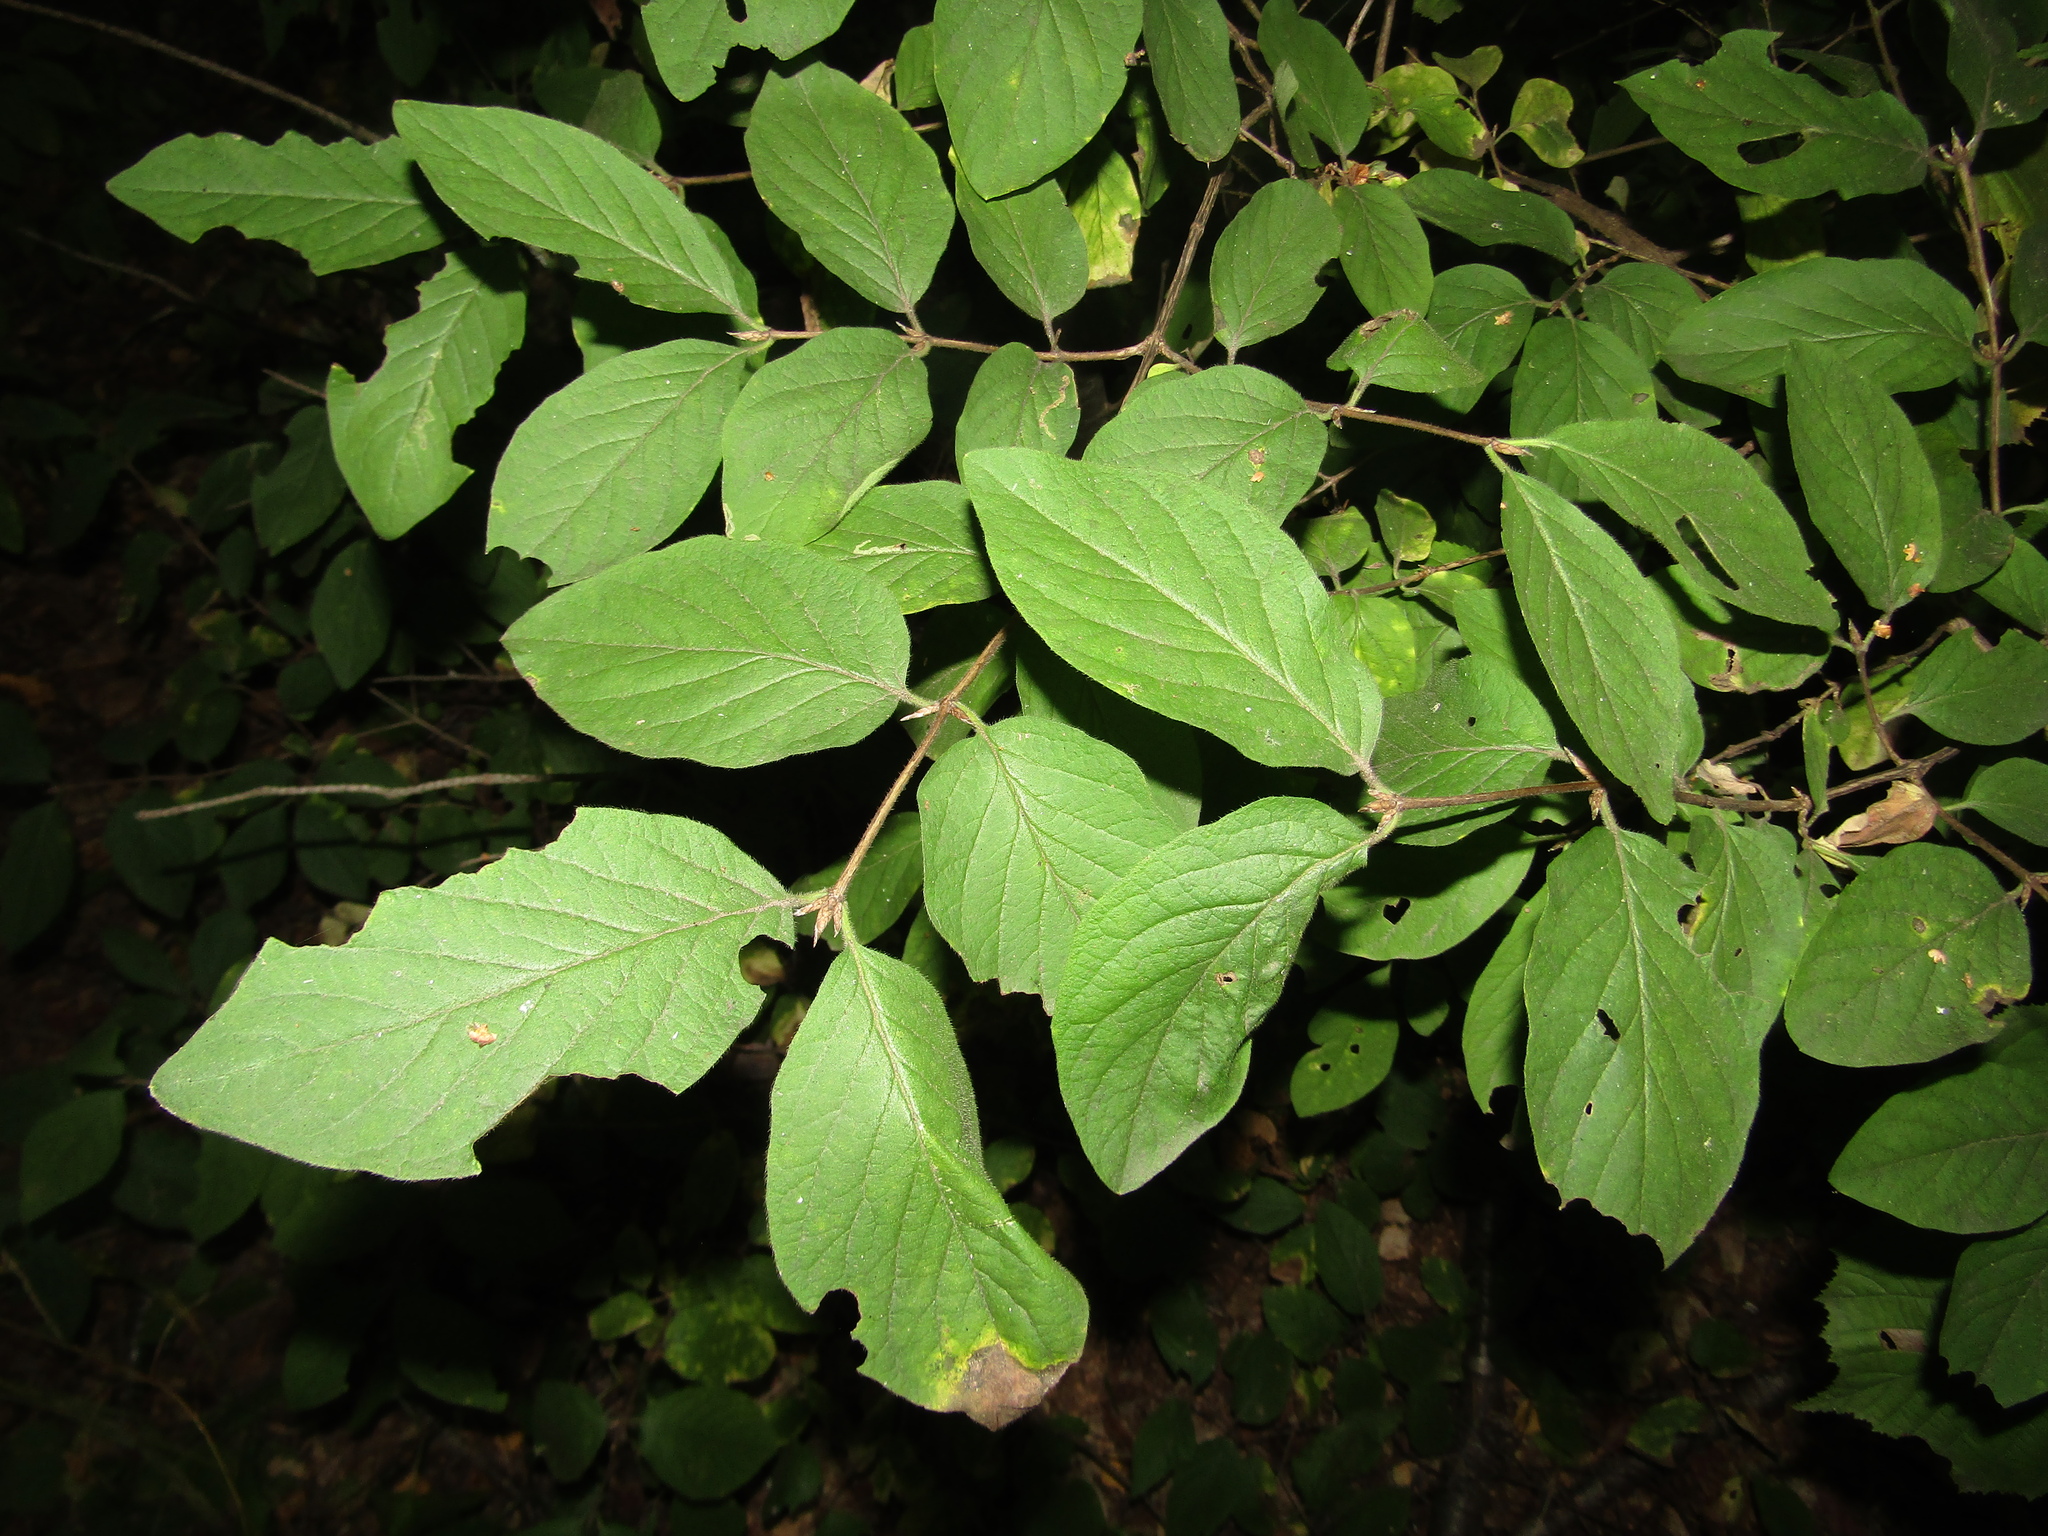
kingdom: Plantae
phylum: Tracheophyta
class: Magnoliopsida
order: Dipsacales
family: Caprifoliaceae
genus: Lonicera
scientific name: Lonicera xylosteum
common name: Fly honeysuckle
